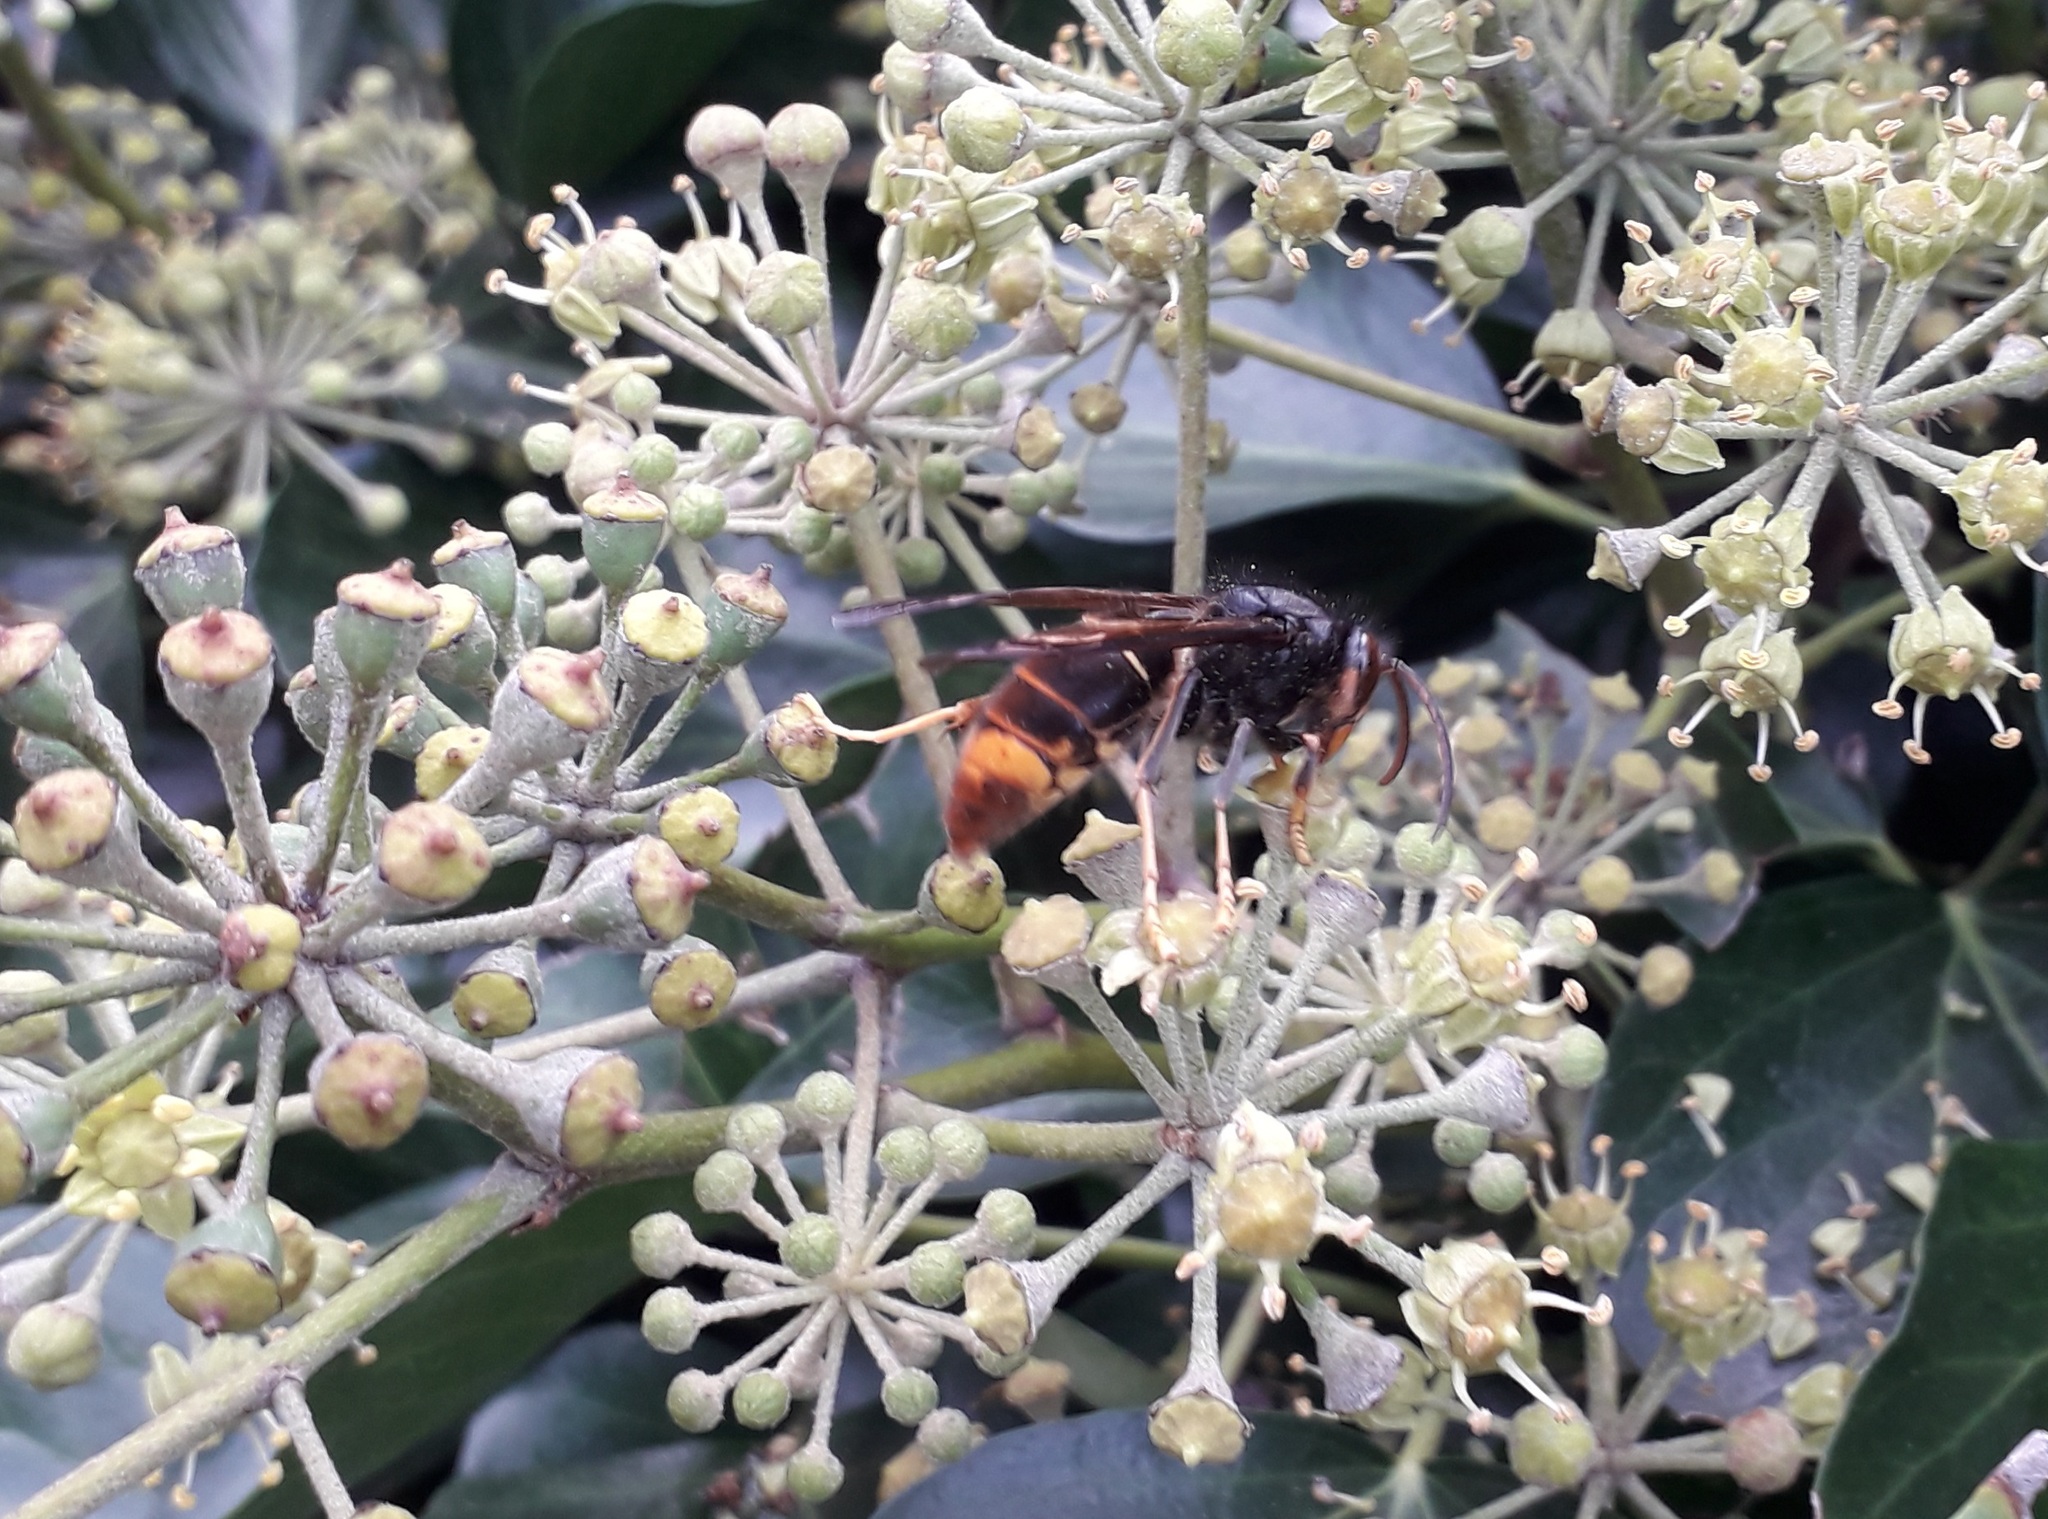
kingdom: Animalia
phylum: Arthropoda
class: Insecta
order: Hymenoptera
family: Vespidae
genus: Vespa
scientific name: Vespa velutina
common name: Asian hornet
